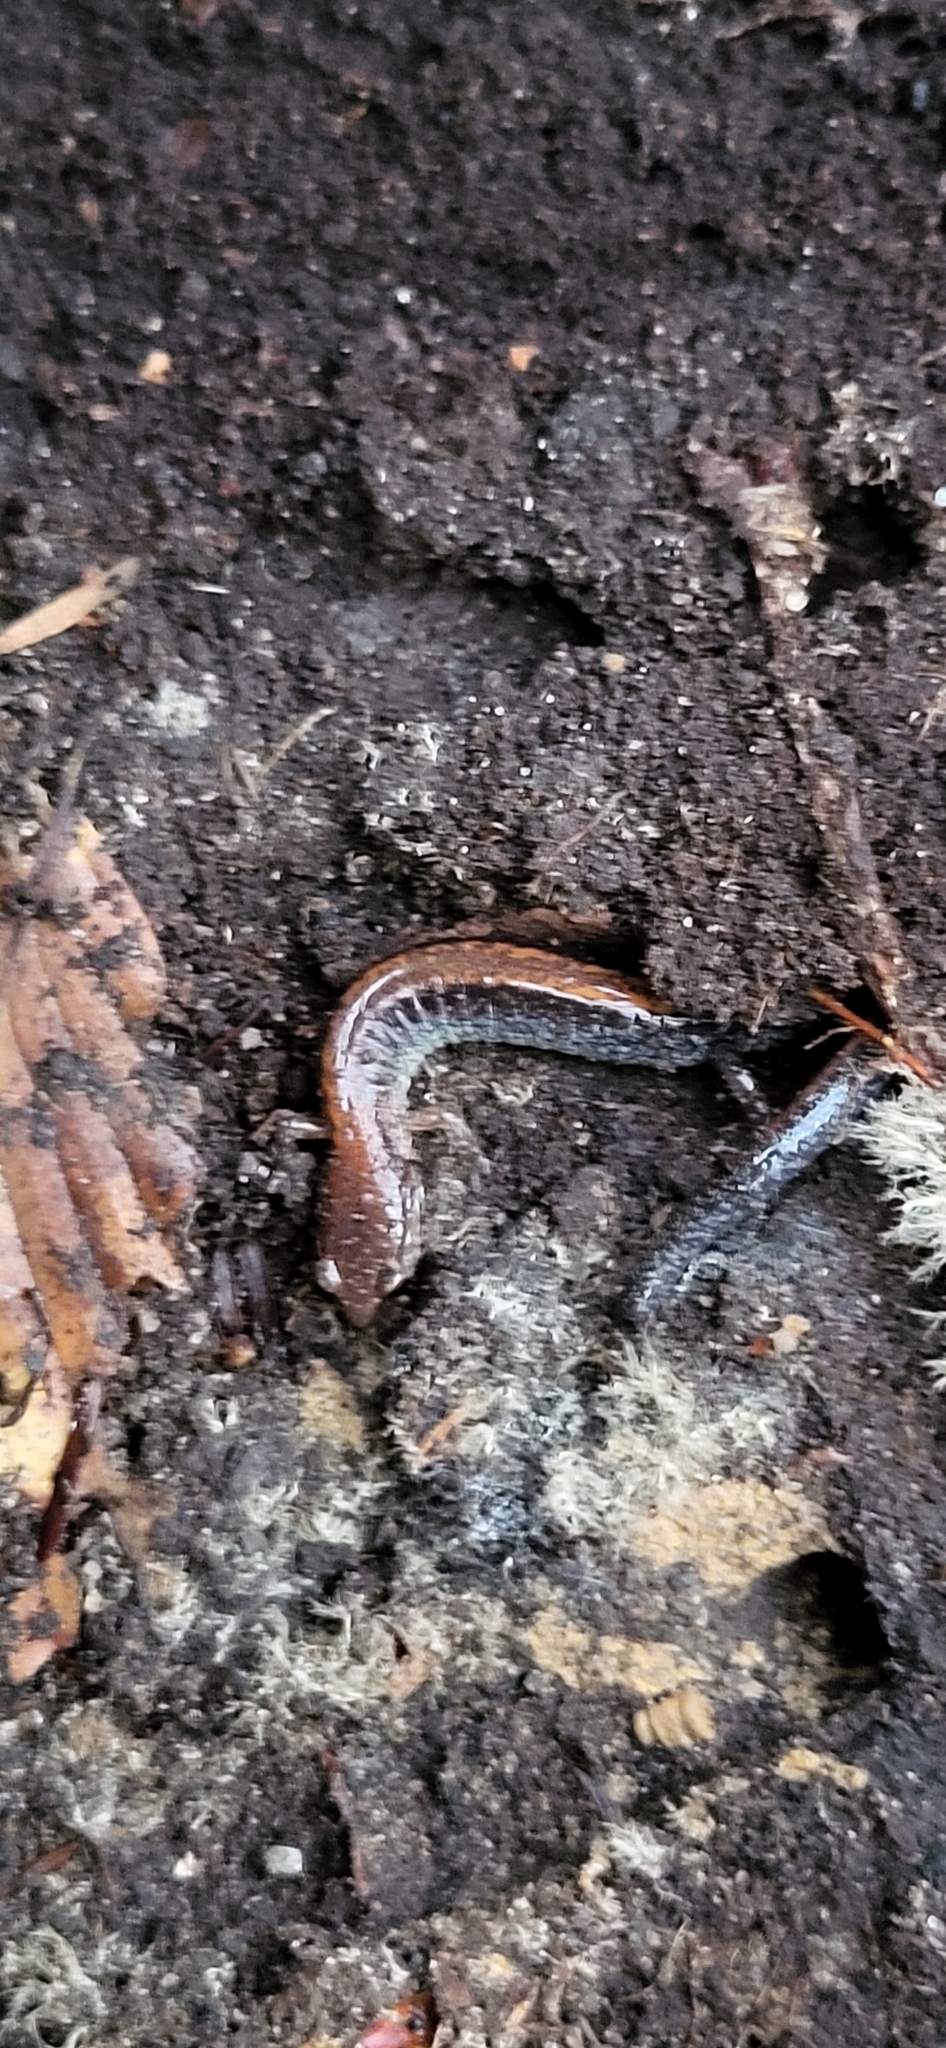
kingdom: Animalia
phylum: Chordata
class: Amphibia
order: Caudata
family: Plethodontidae
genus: Plethodon
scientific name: Plethodon cinereus
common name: Redback salamander
